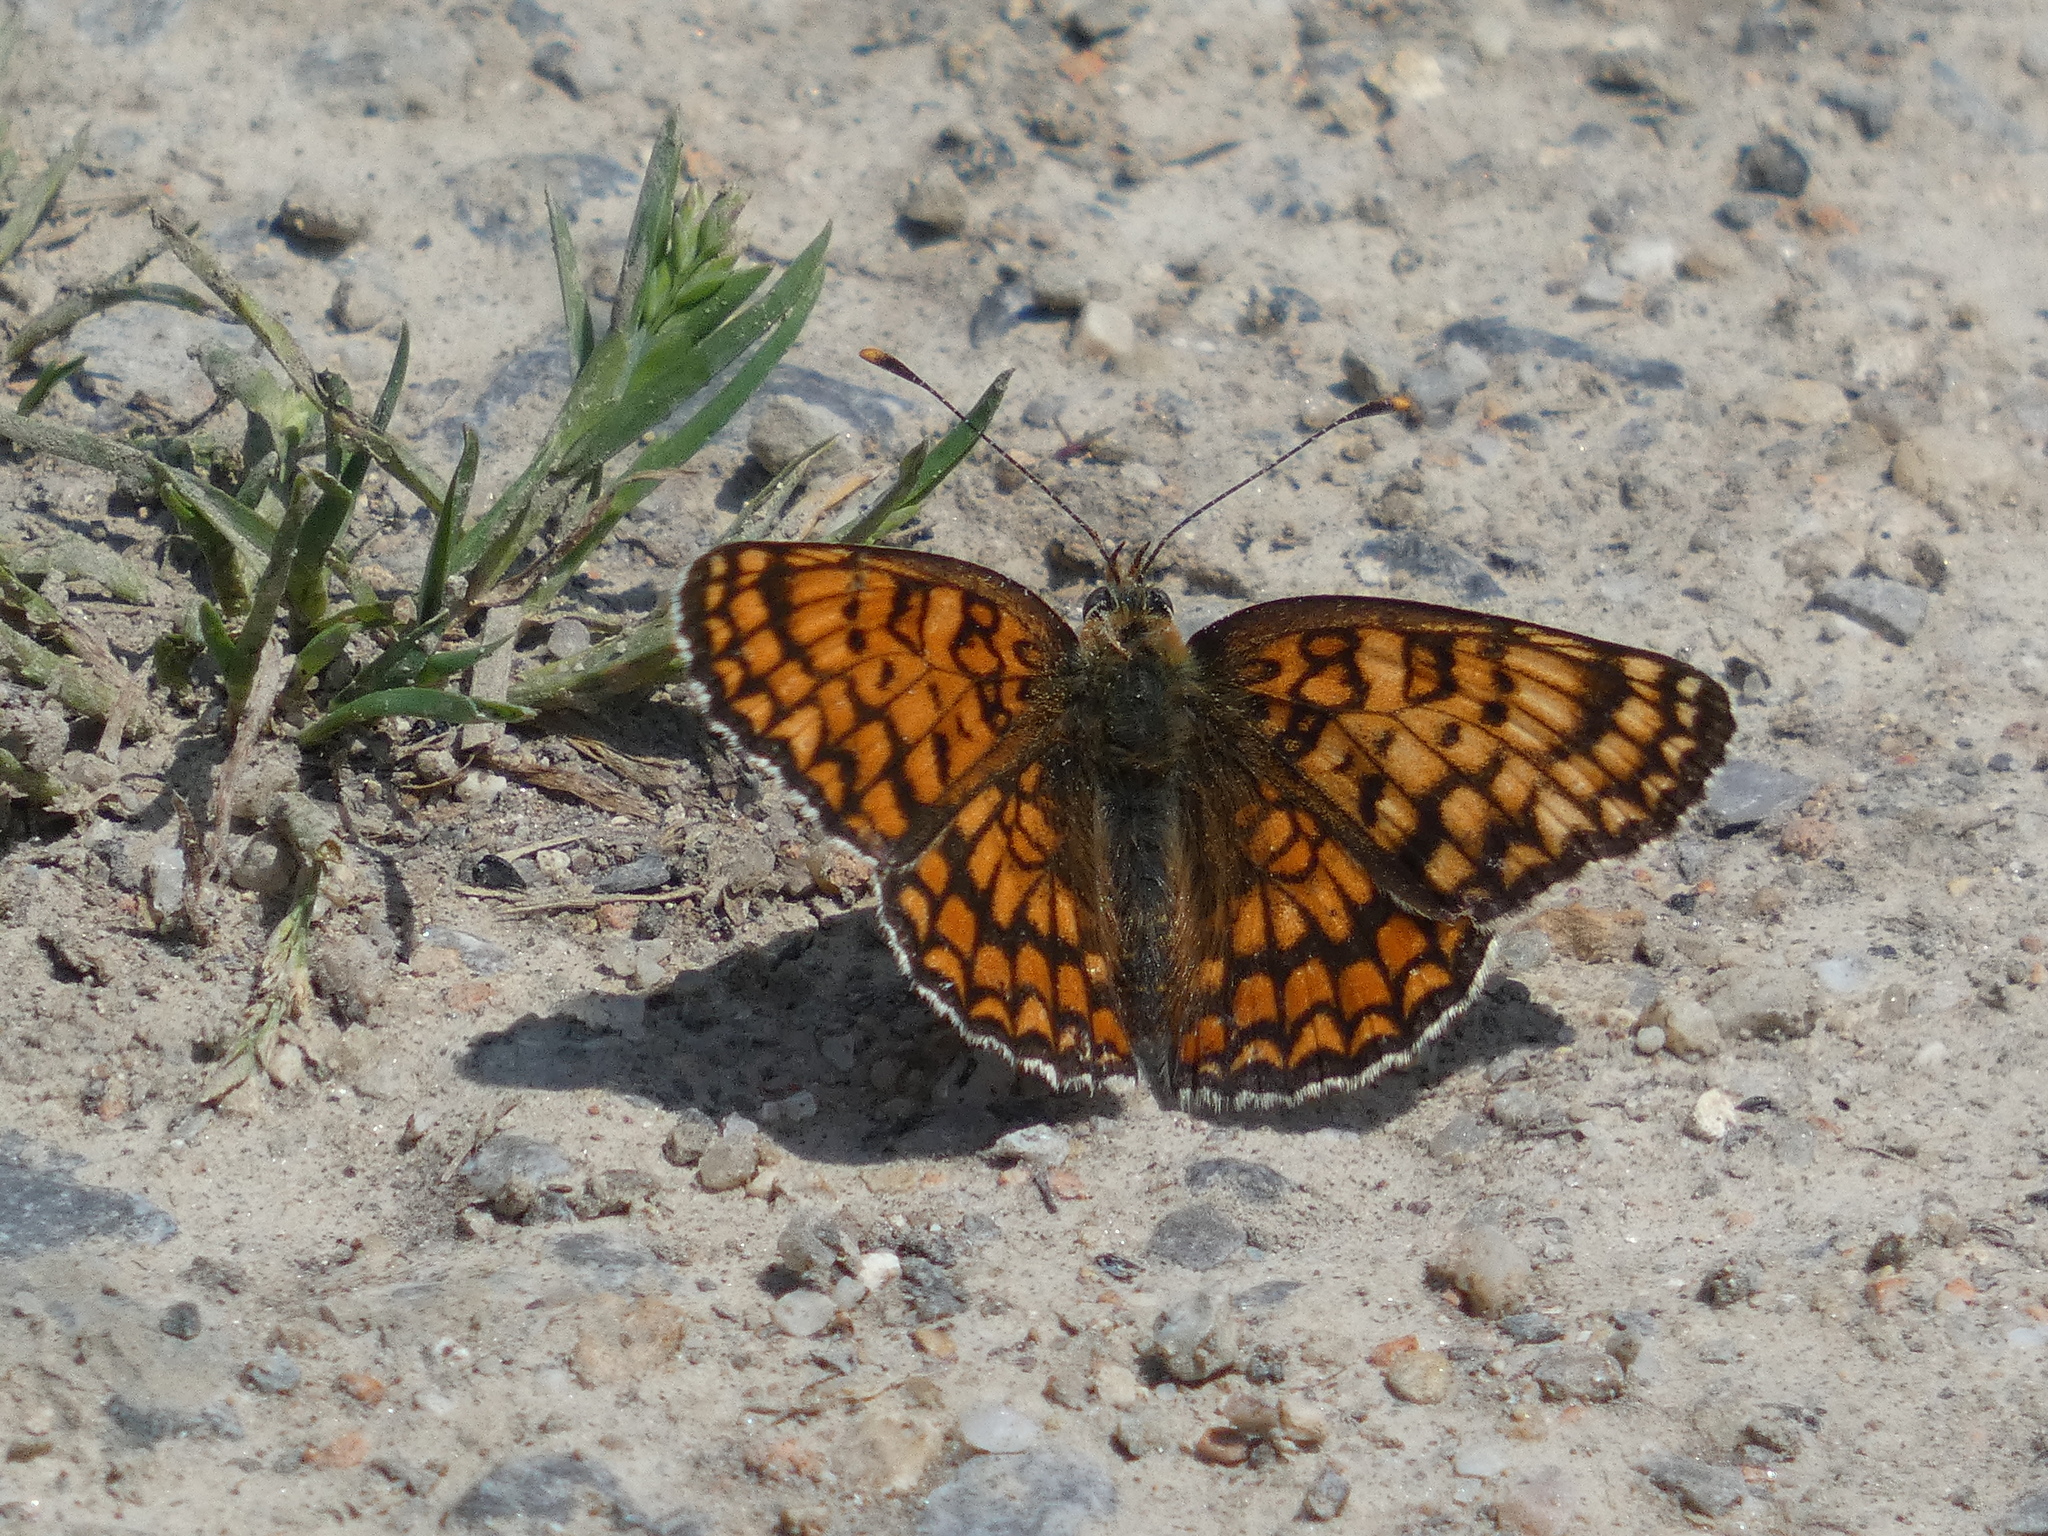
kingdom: Animalia
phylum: Arthropoda
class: Insecta
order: Lepidoptera
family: Nymphalidae
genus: Melitaea
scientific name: Melitaea phoebe
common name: Knapweed fritillary
